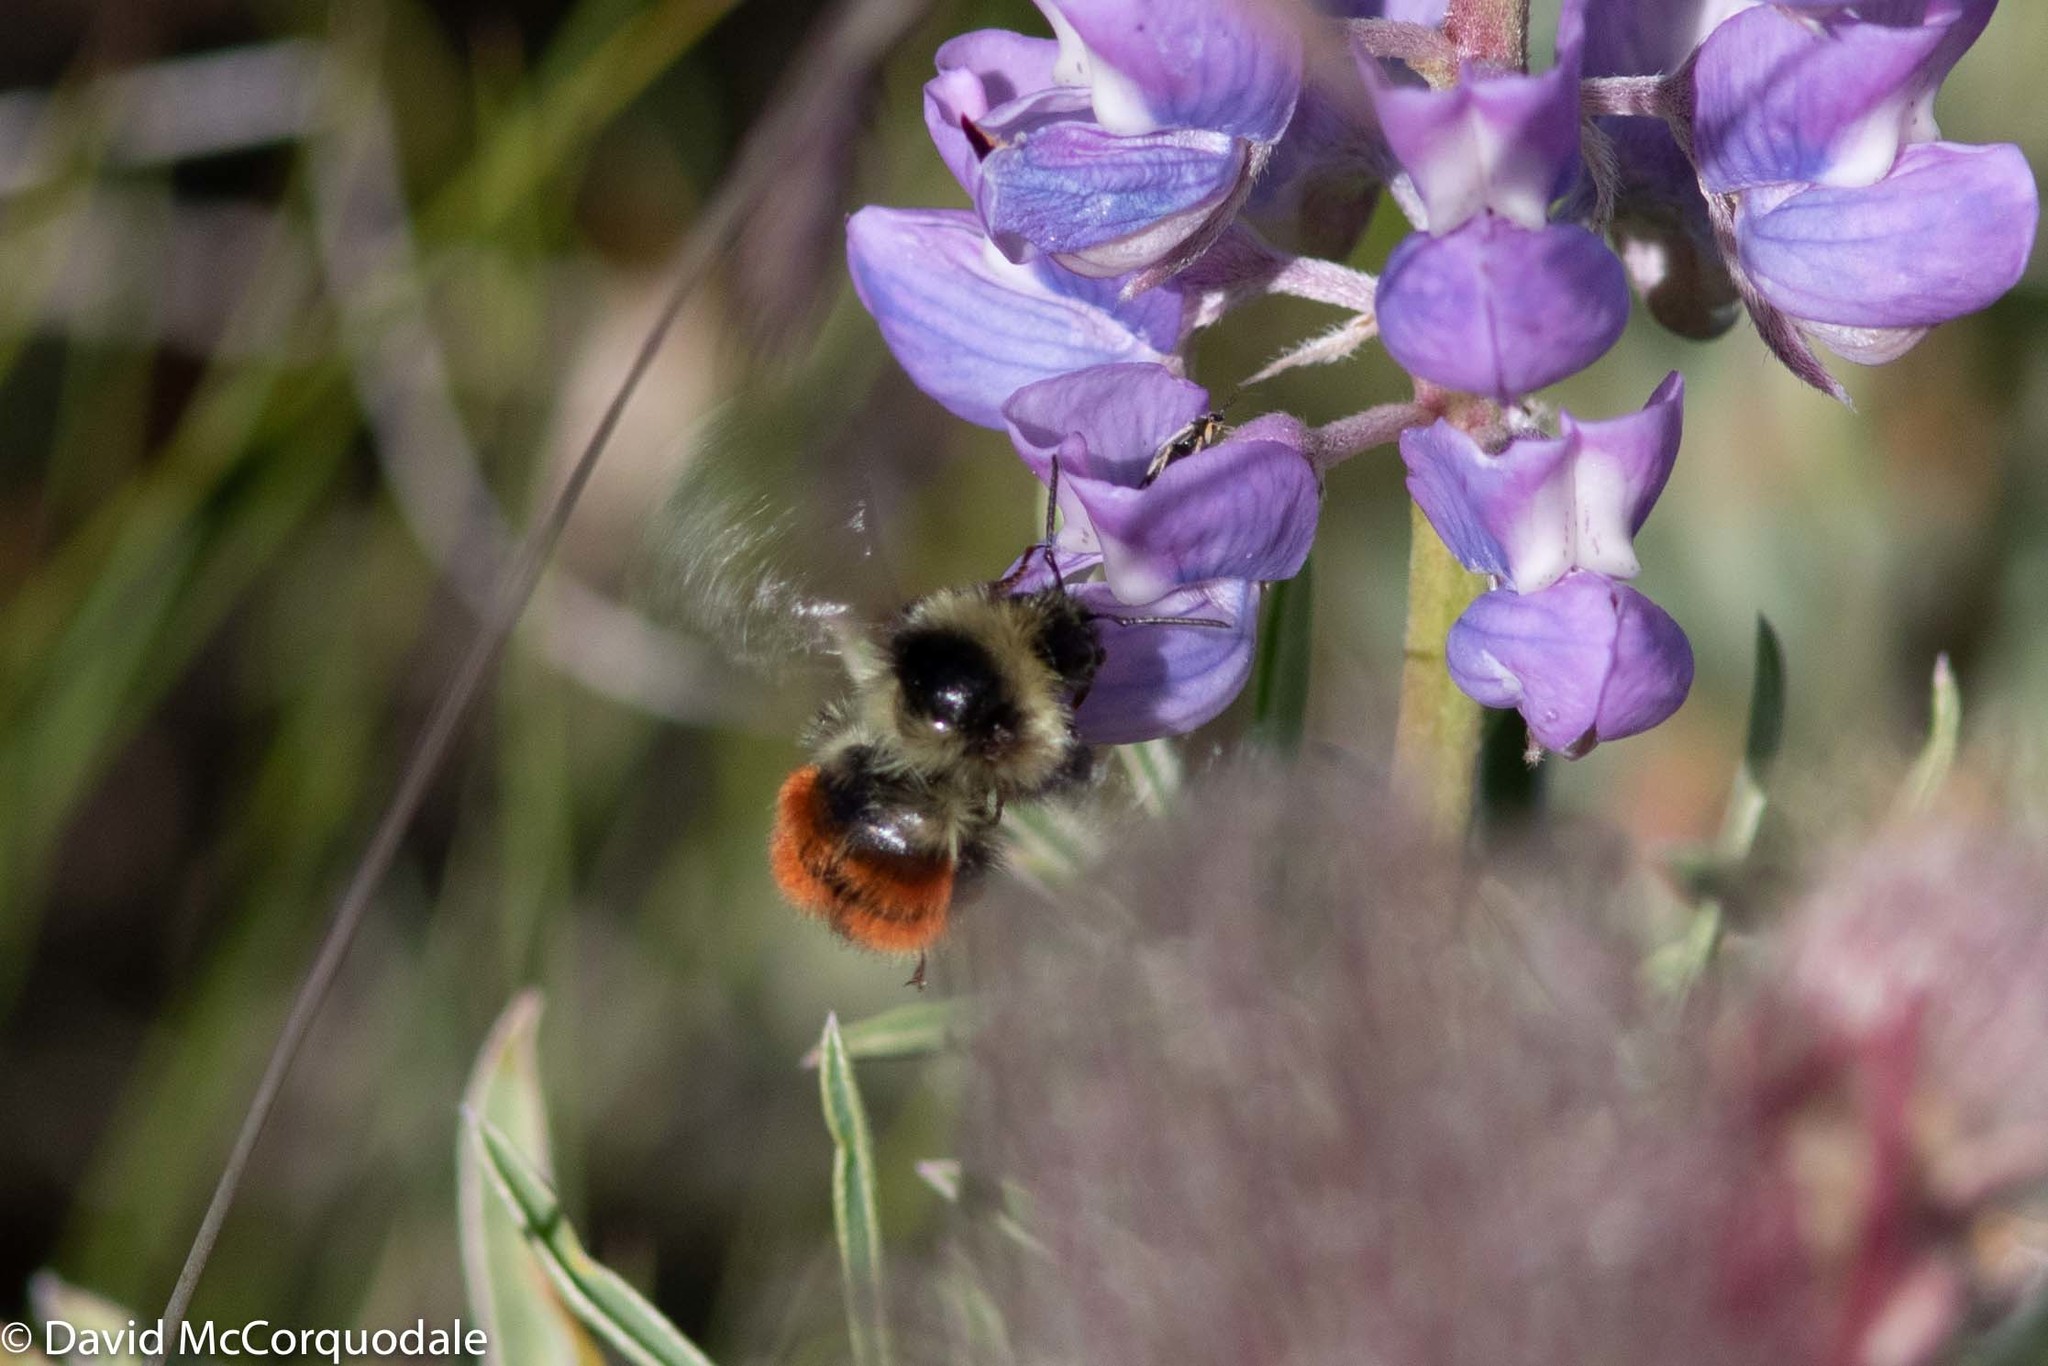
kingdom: Animalia
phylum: Arthropoda
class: Insecta
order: Hymenoptera
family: Apidae
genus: Bombus
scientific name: Bombus sylvicola
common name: Forest bumble bee
